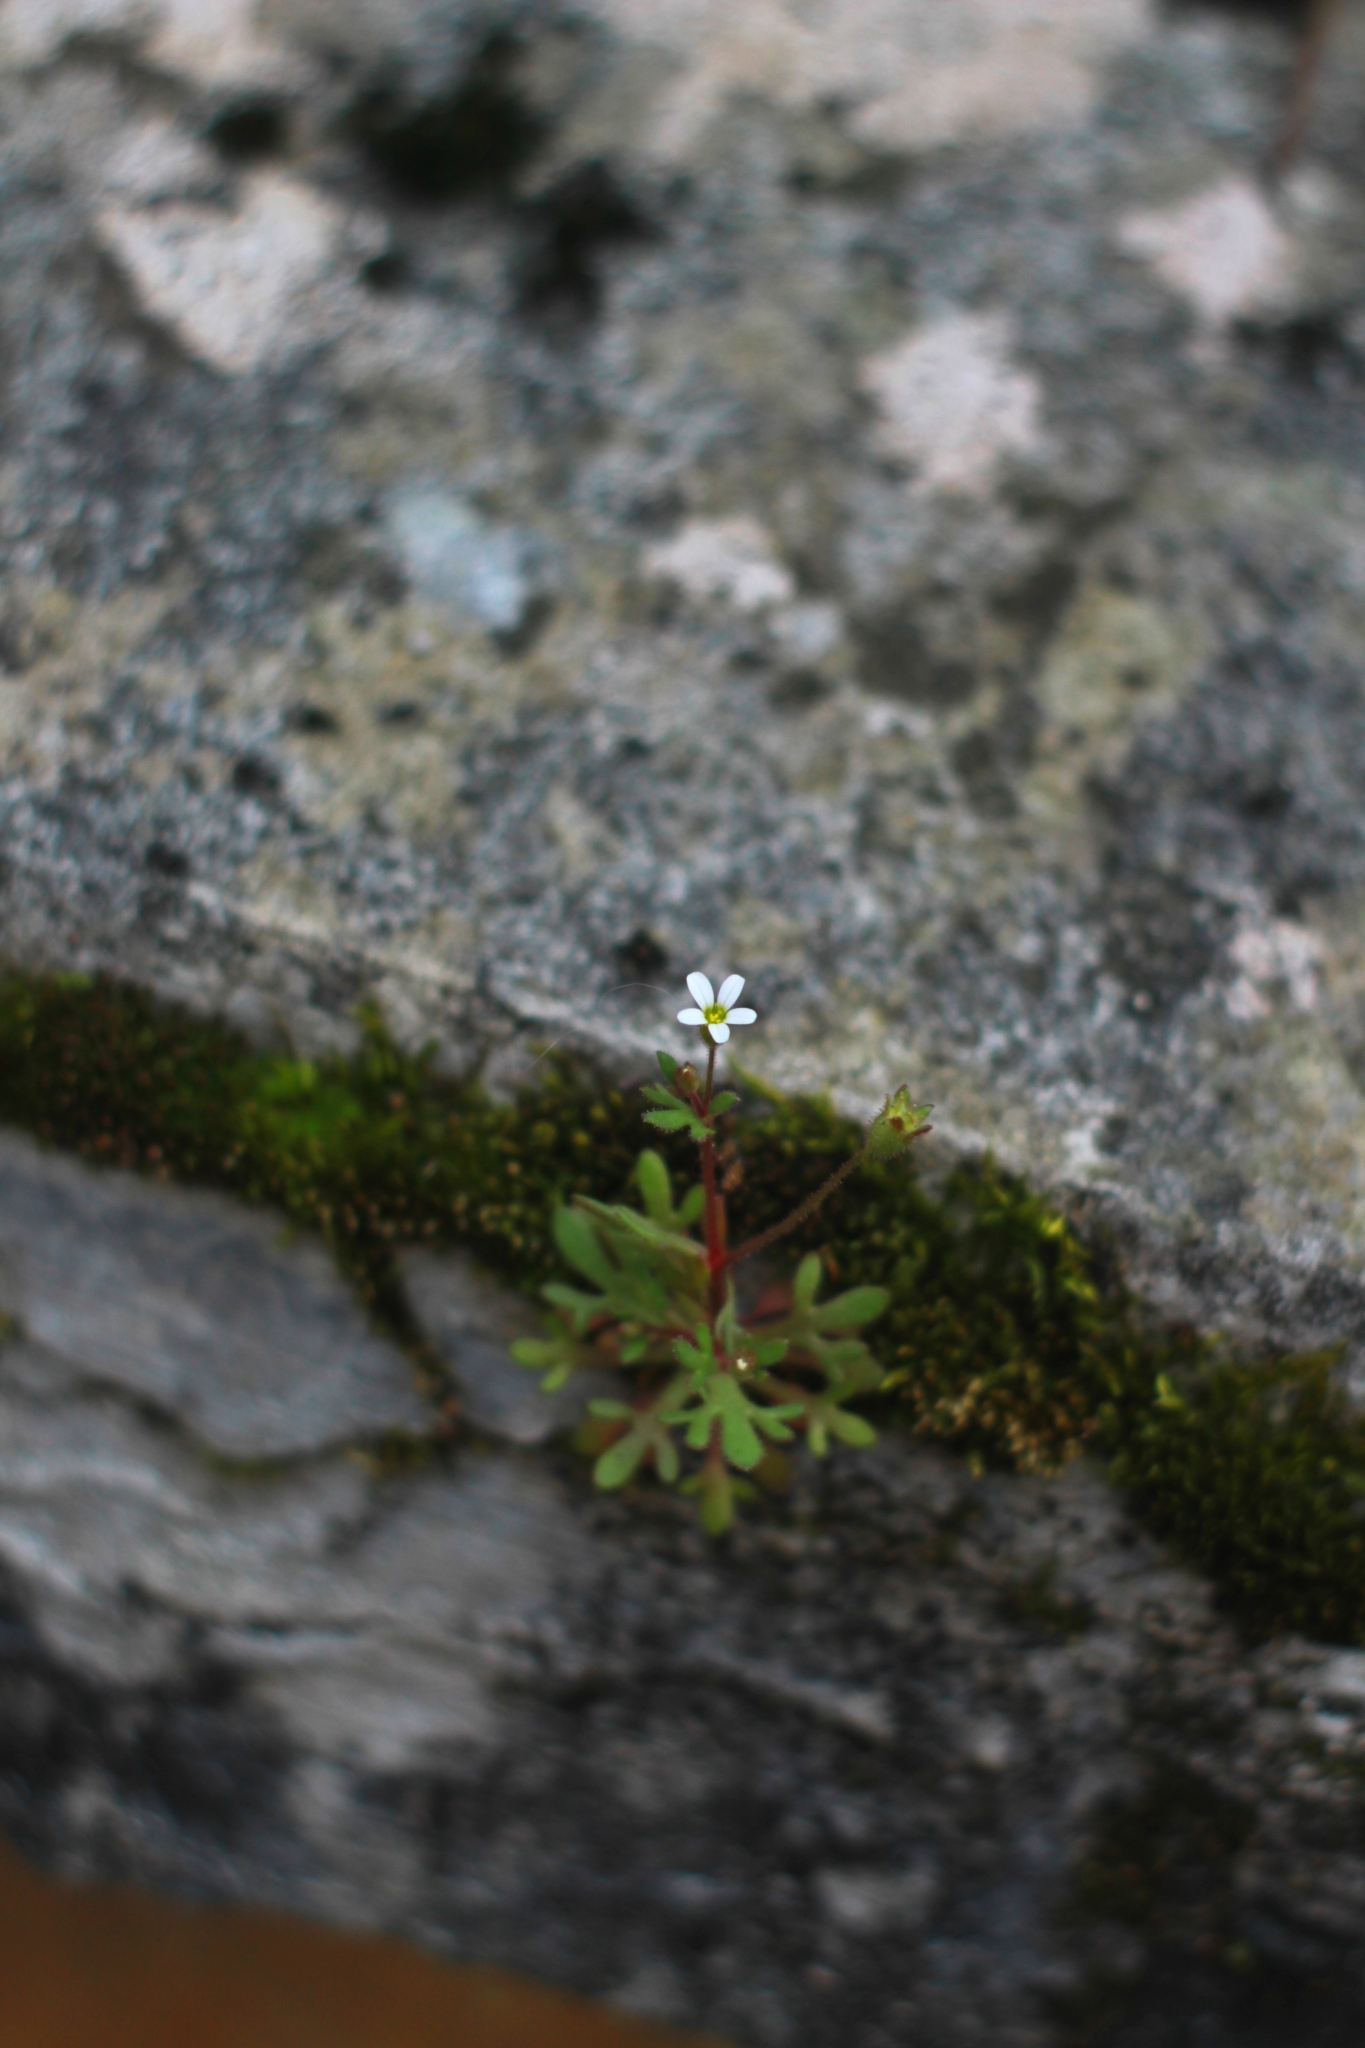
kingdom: Plantae
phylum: Tracheophyta
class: Magnoliopsida
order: Saxifragales
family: Saxifragaceae
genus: Saxifraga
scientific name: Saxifraga tridactylites
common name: Rue-leaved saxifrage
